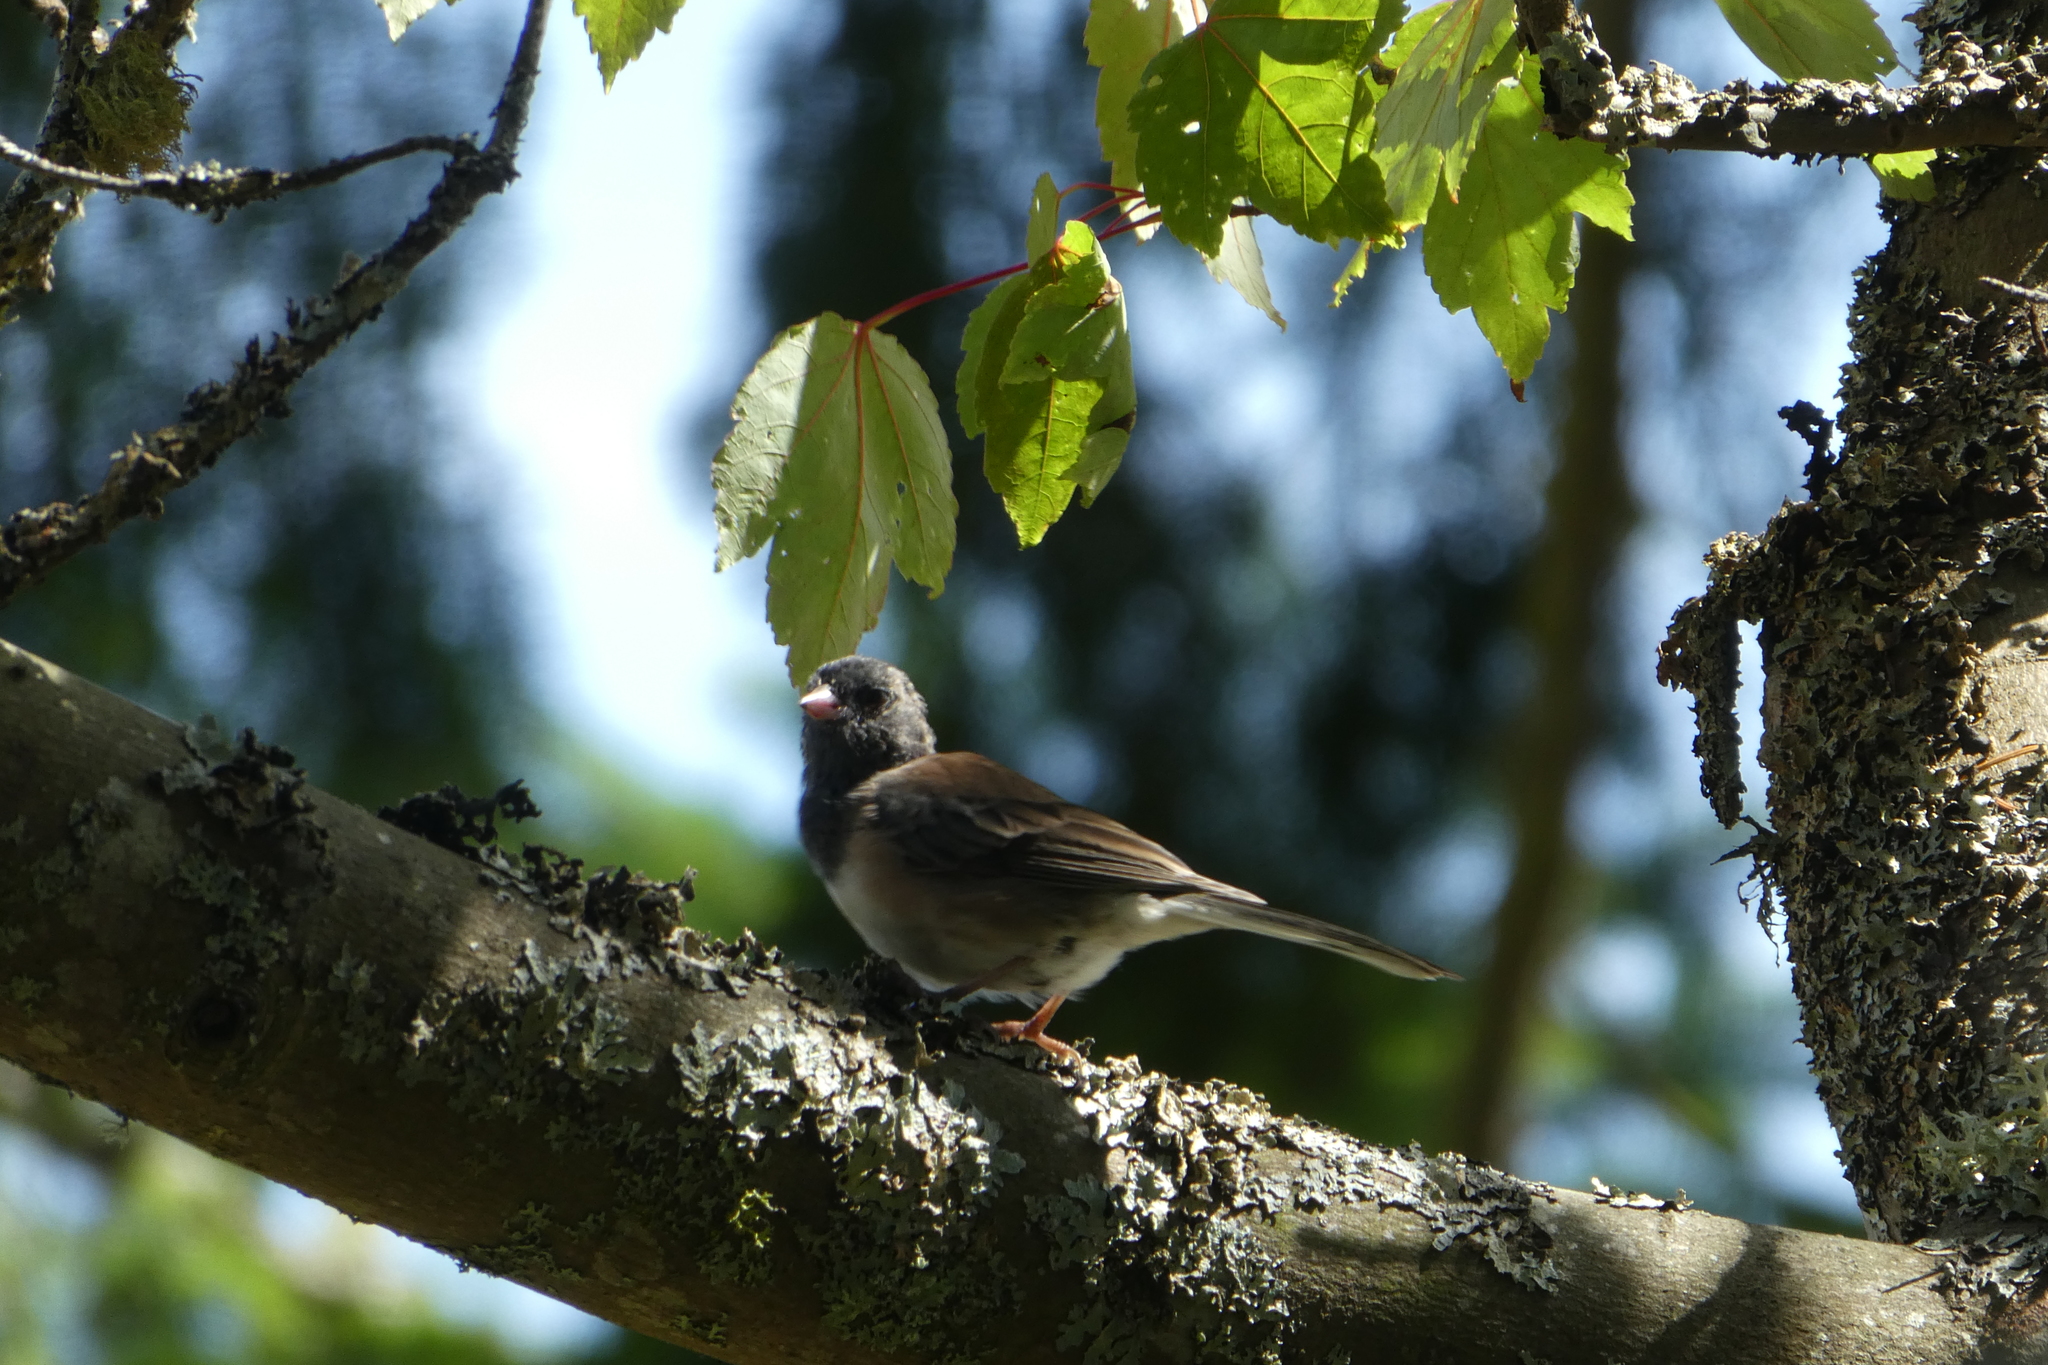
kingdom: Animalia
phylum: Chordata
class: Aves
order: Passeriformes
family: Passerellidae
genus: Junco
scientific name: Junco hyemalis
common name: Dark-eyed junco
